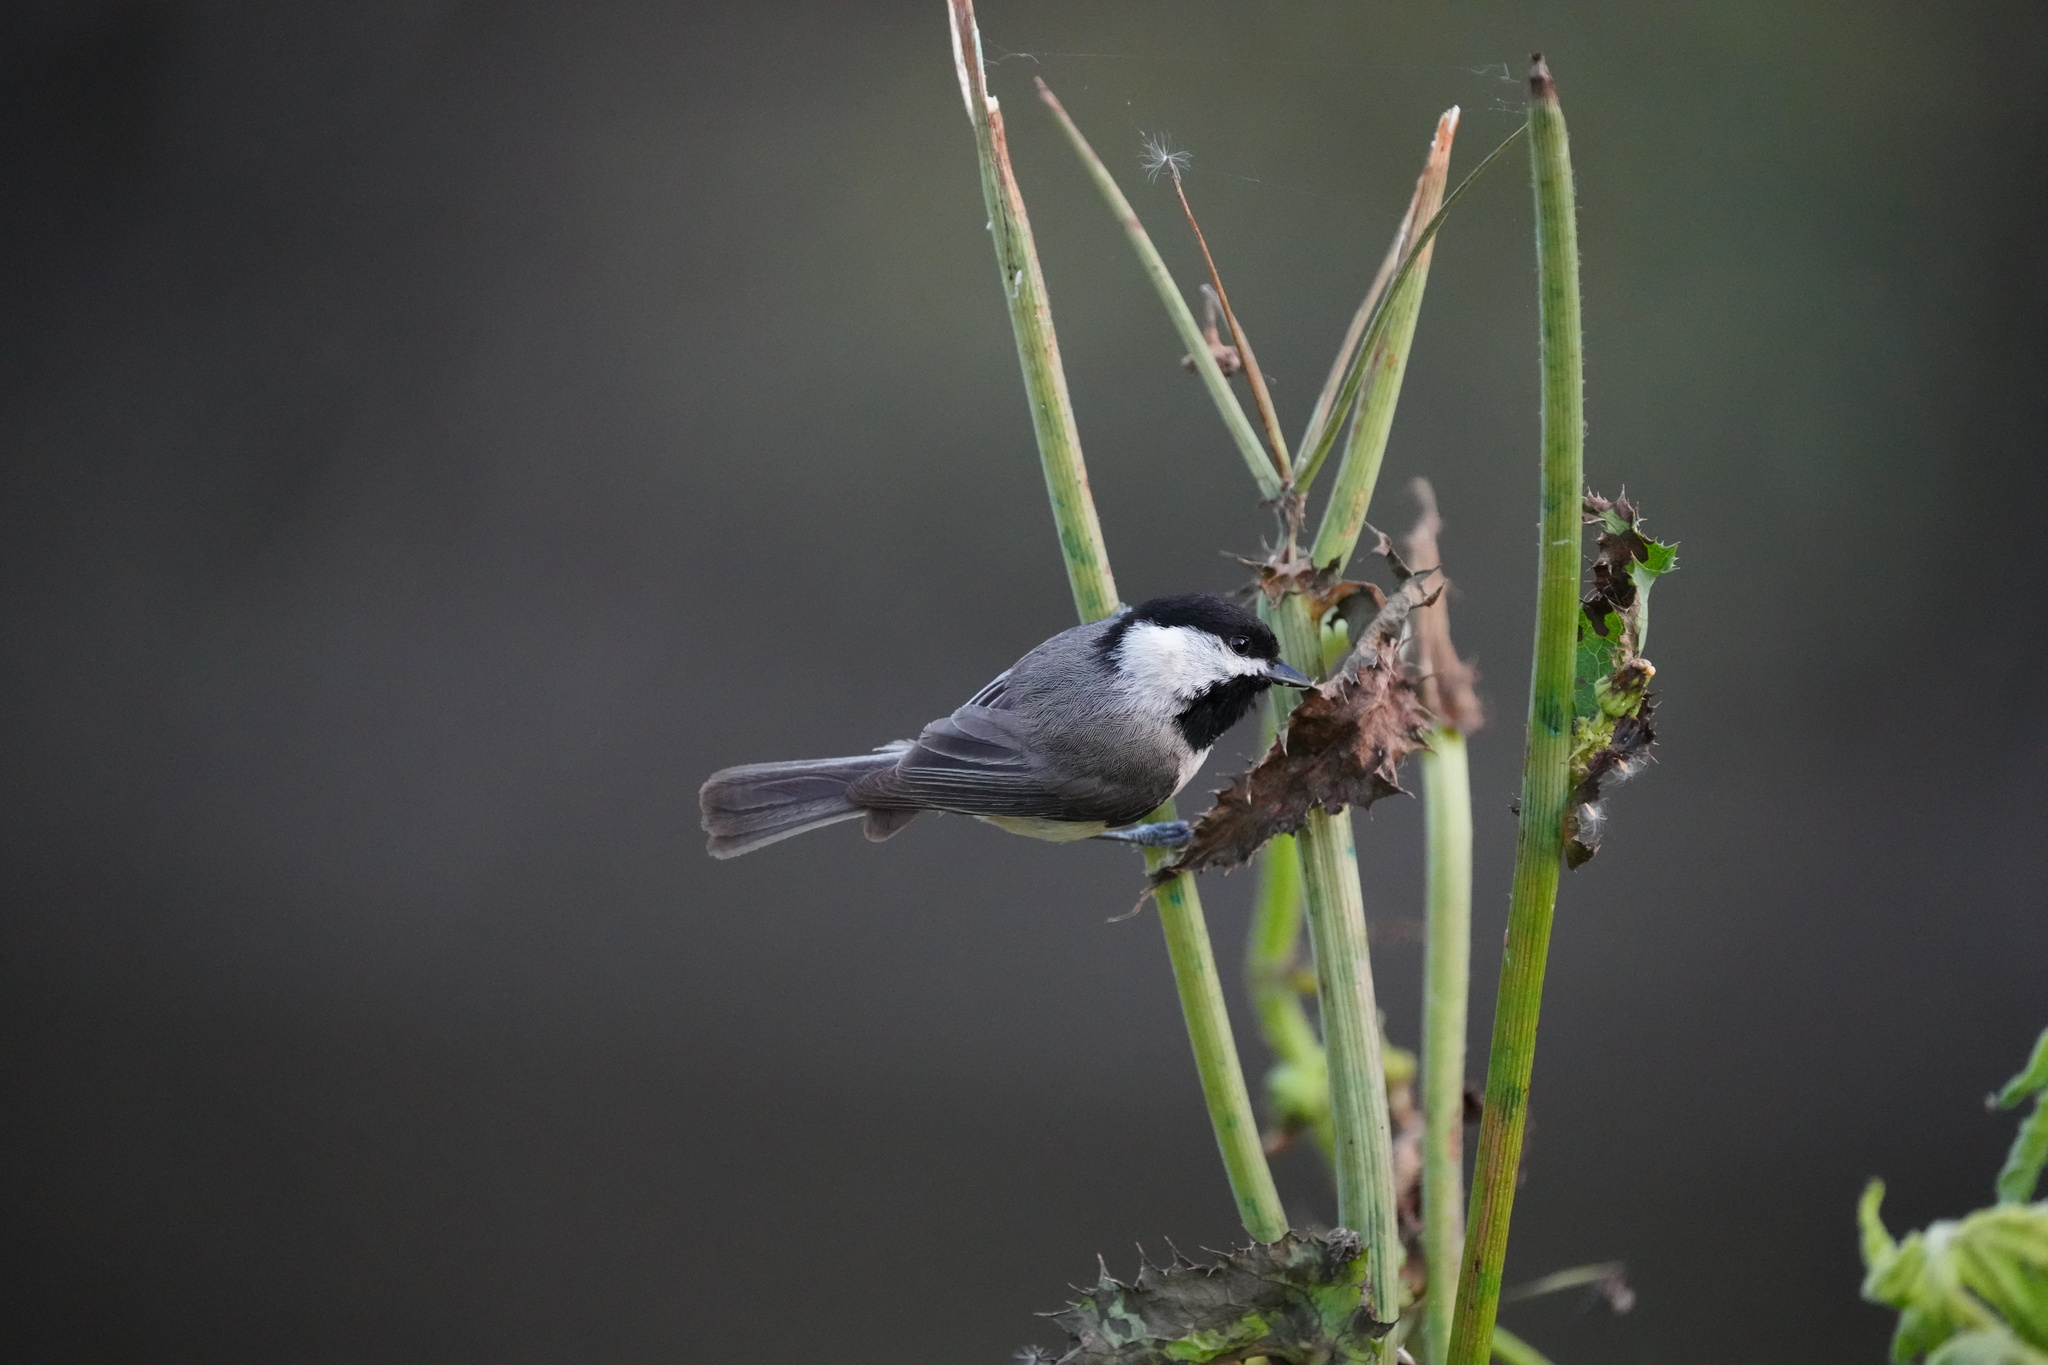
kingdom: Animalia
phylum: Chordata
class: Aves
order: Passeriformes
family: Paridae
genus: Poecile
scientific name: Poecile carolinensis
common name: Carolina chickadee
